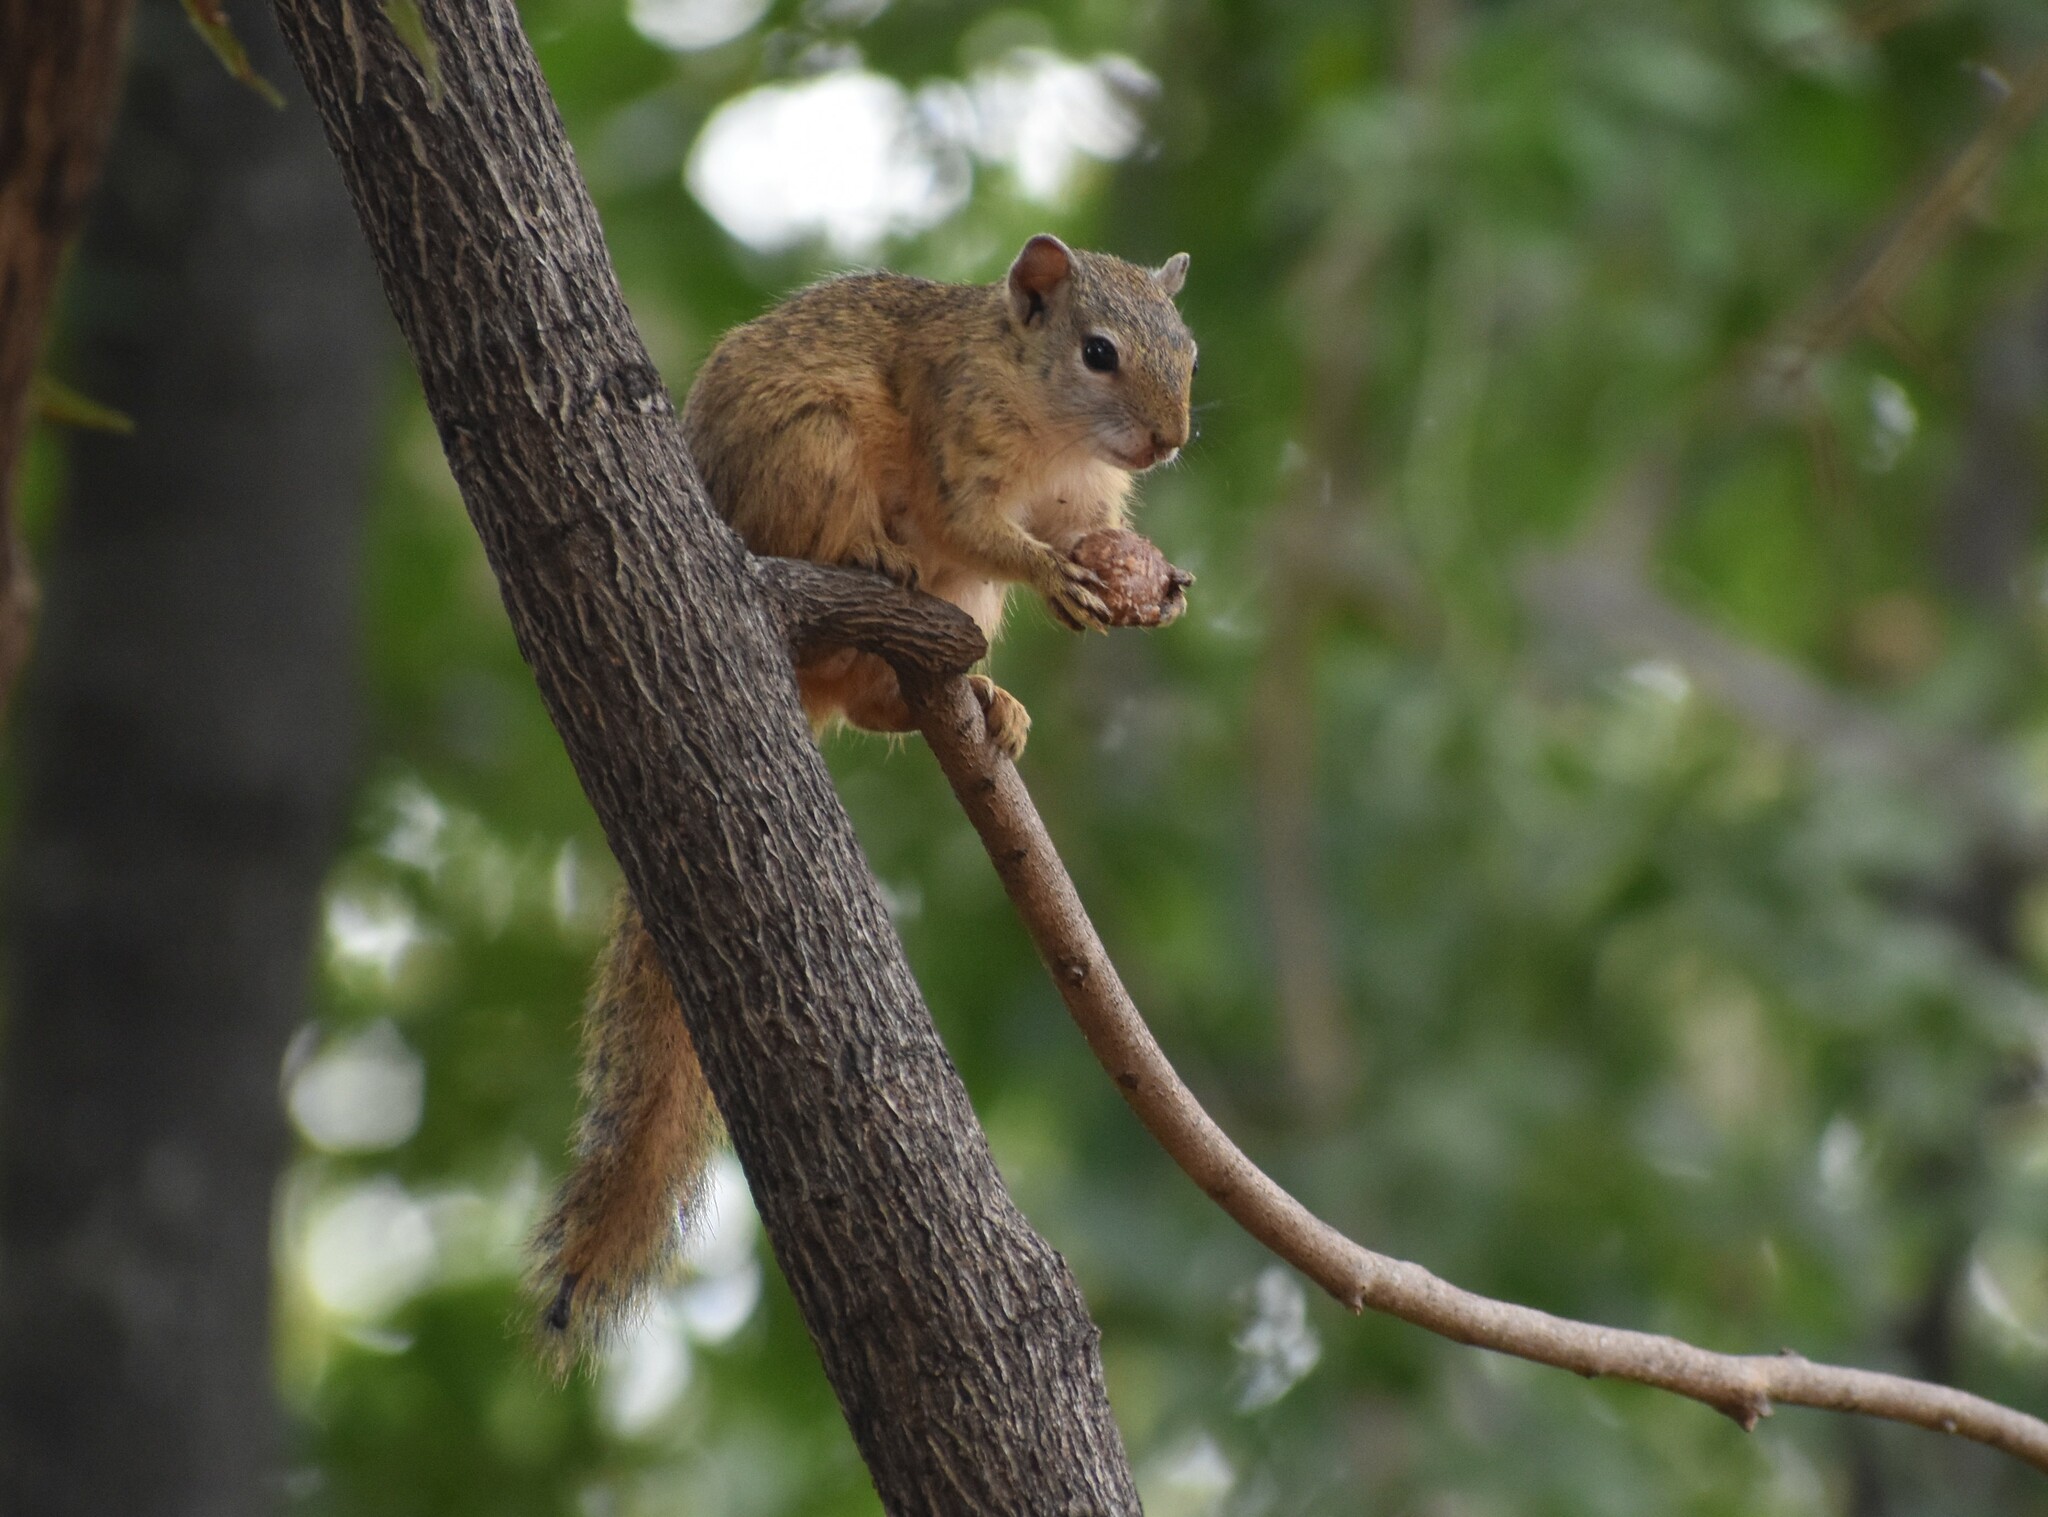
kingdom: Animalia
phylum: Chordata
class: Mammalia
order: Rodentia
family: Sciuridae
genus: Paraxerus
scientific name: Paraxerus cepapi
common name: Smith's bush squirrel
